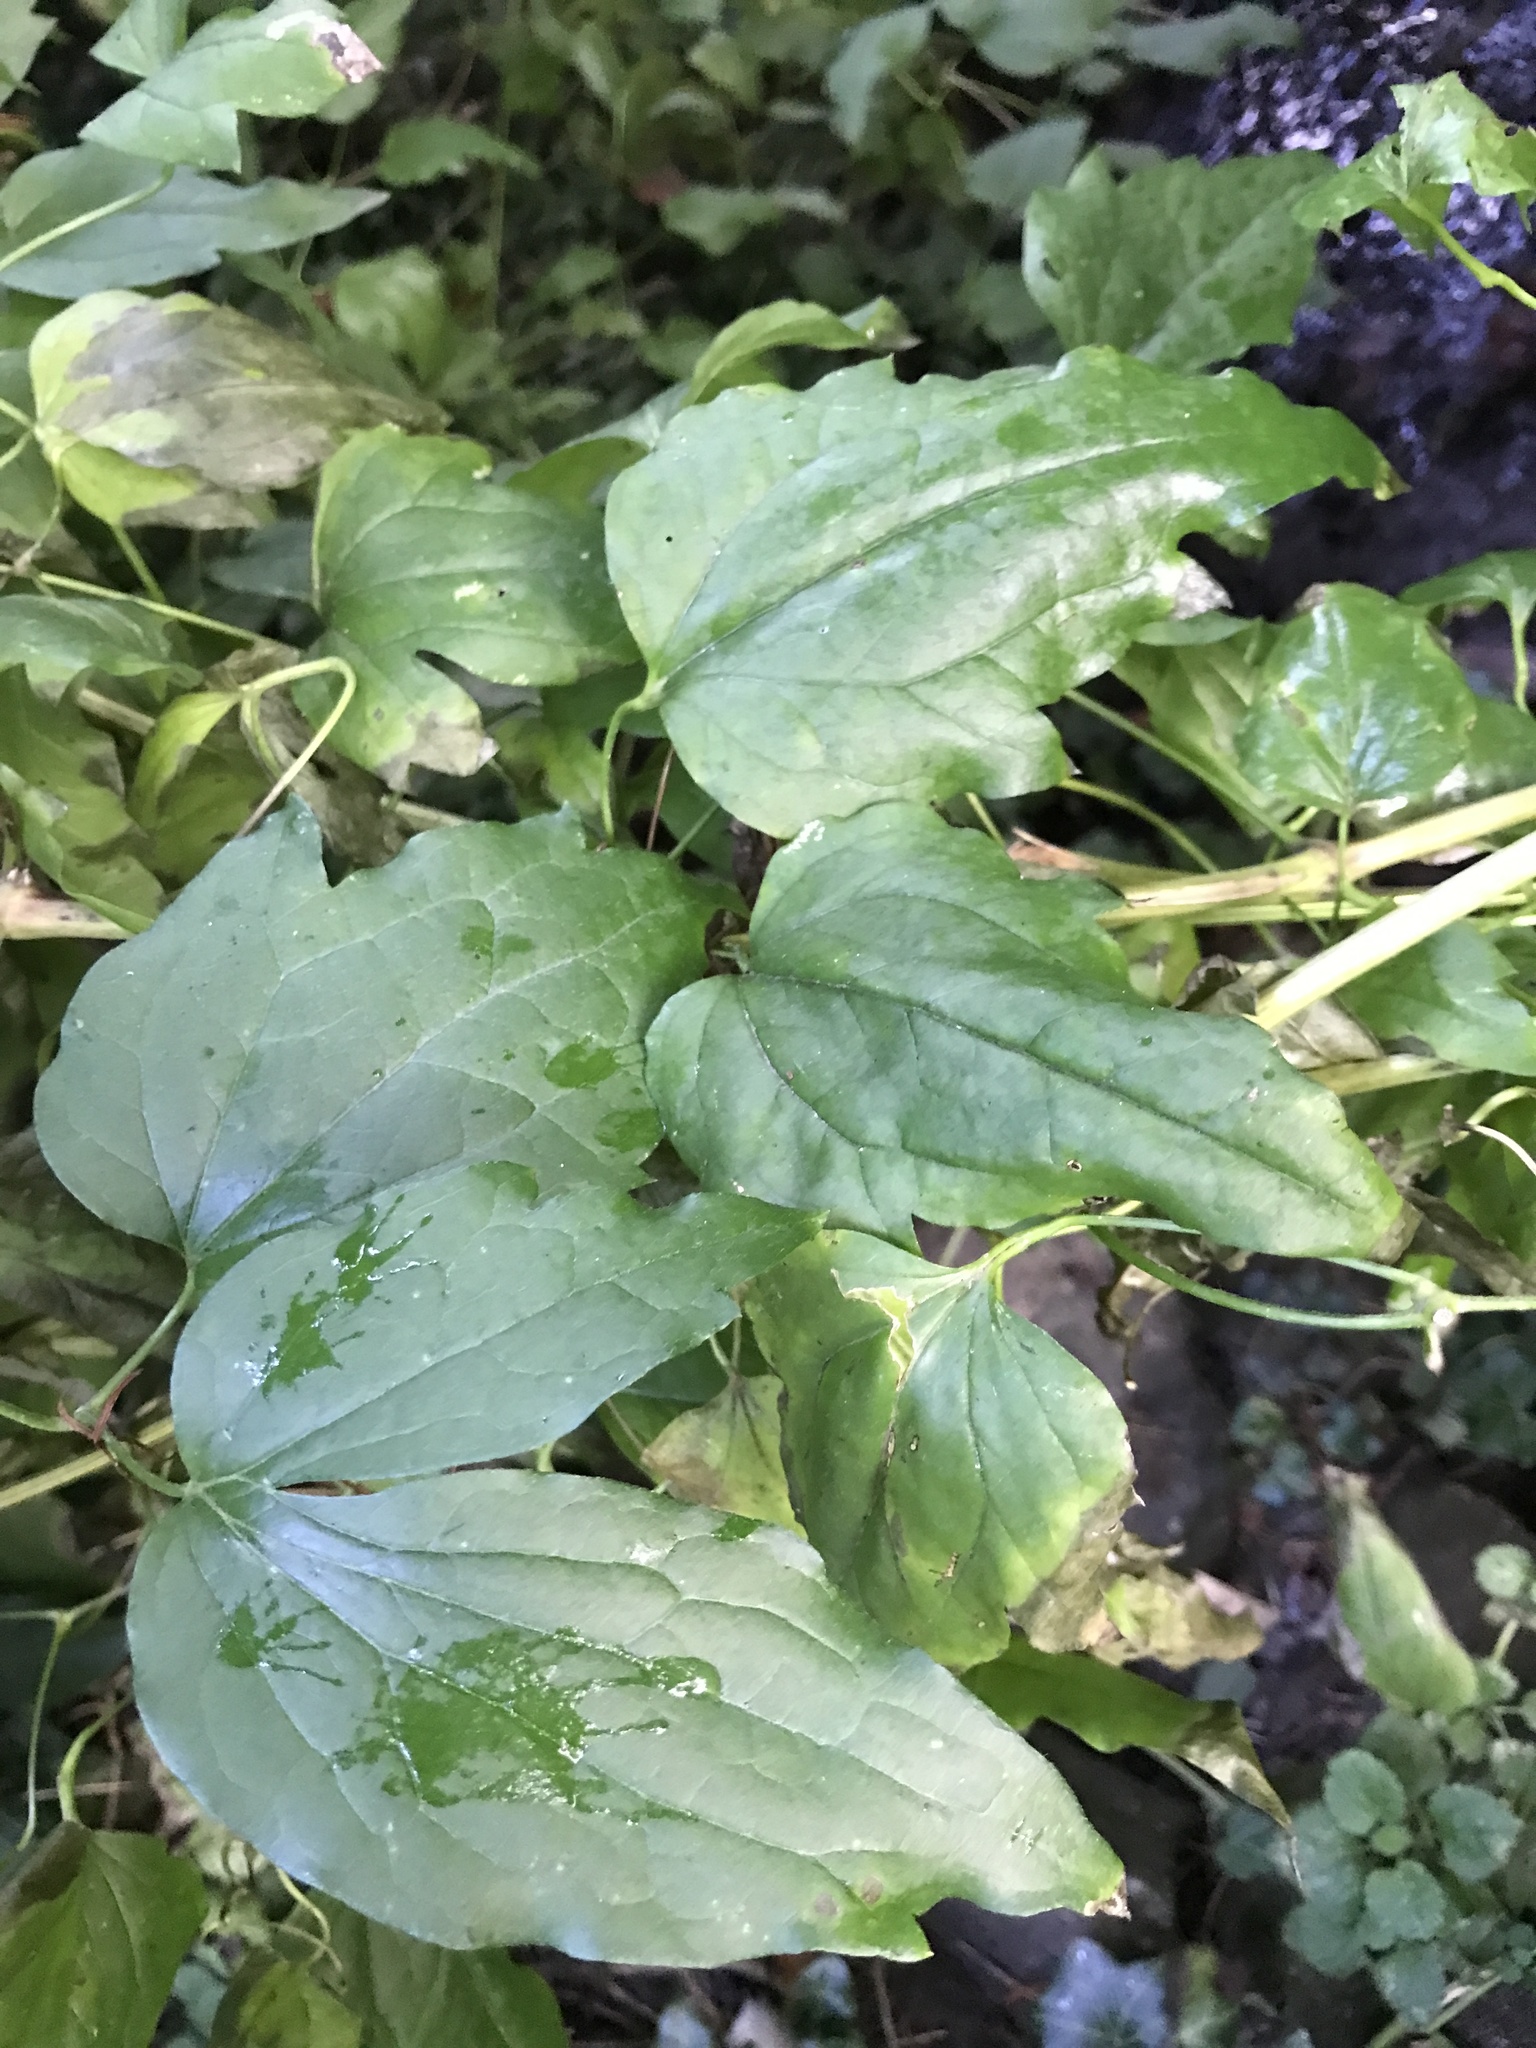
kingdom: Plantae
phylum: Tracheophyta
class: Magnoliopsida
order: Ranunculales
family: Ranunculaceae
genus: Clematis
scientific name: Clematis vitalba
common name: Evergreen clematis
